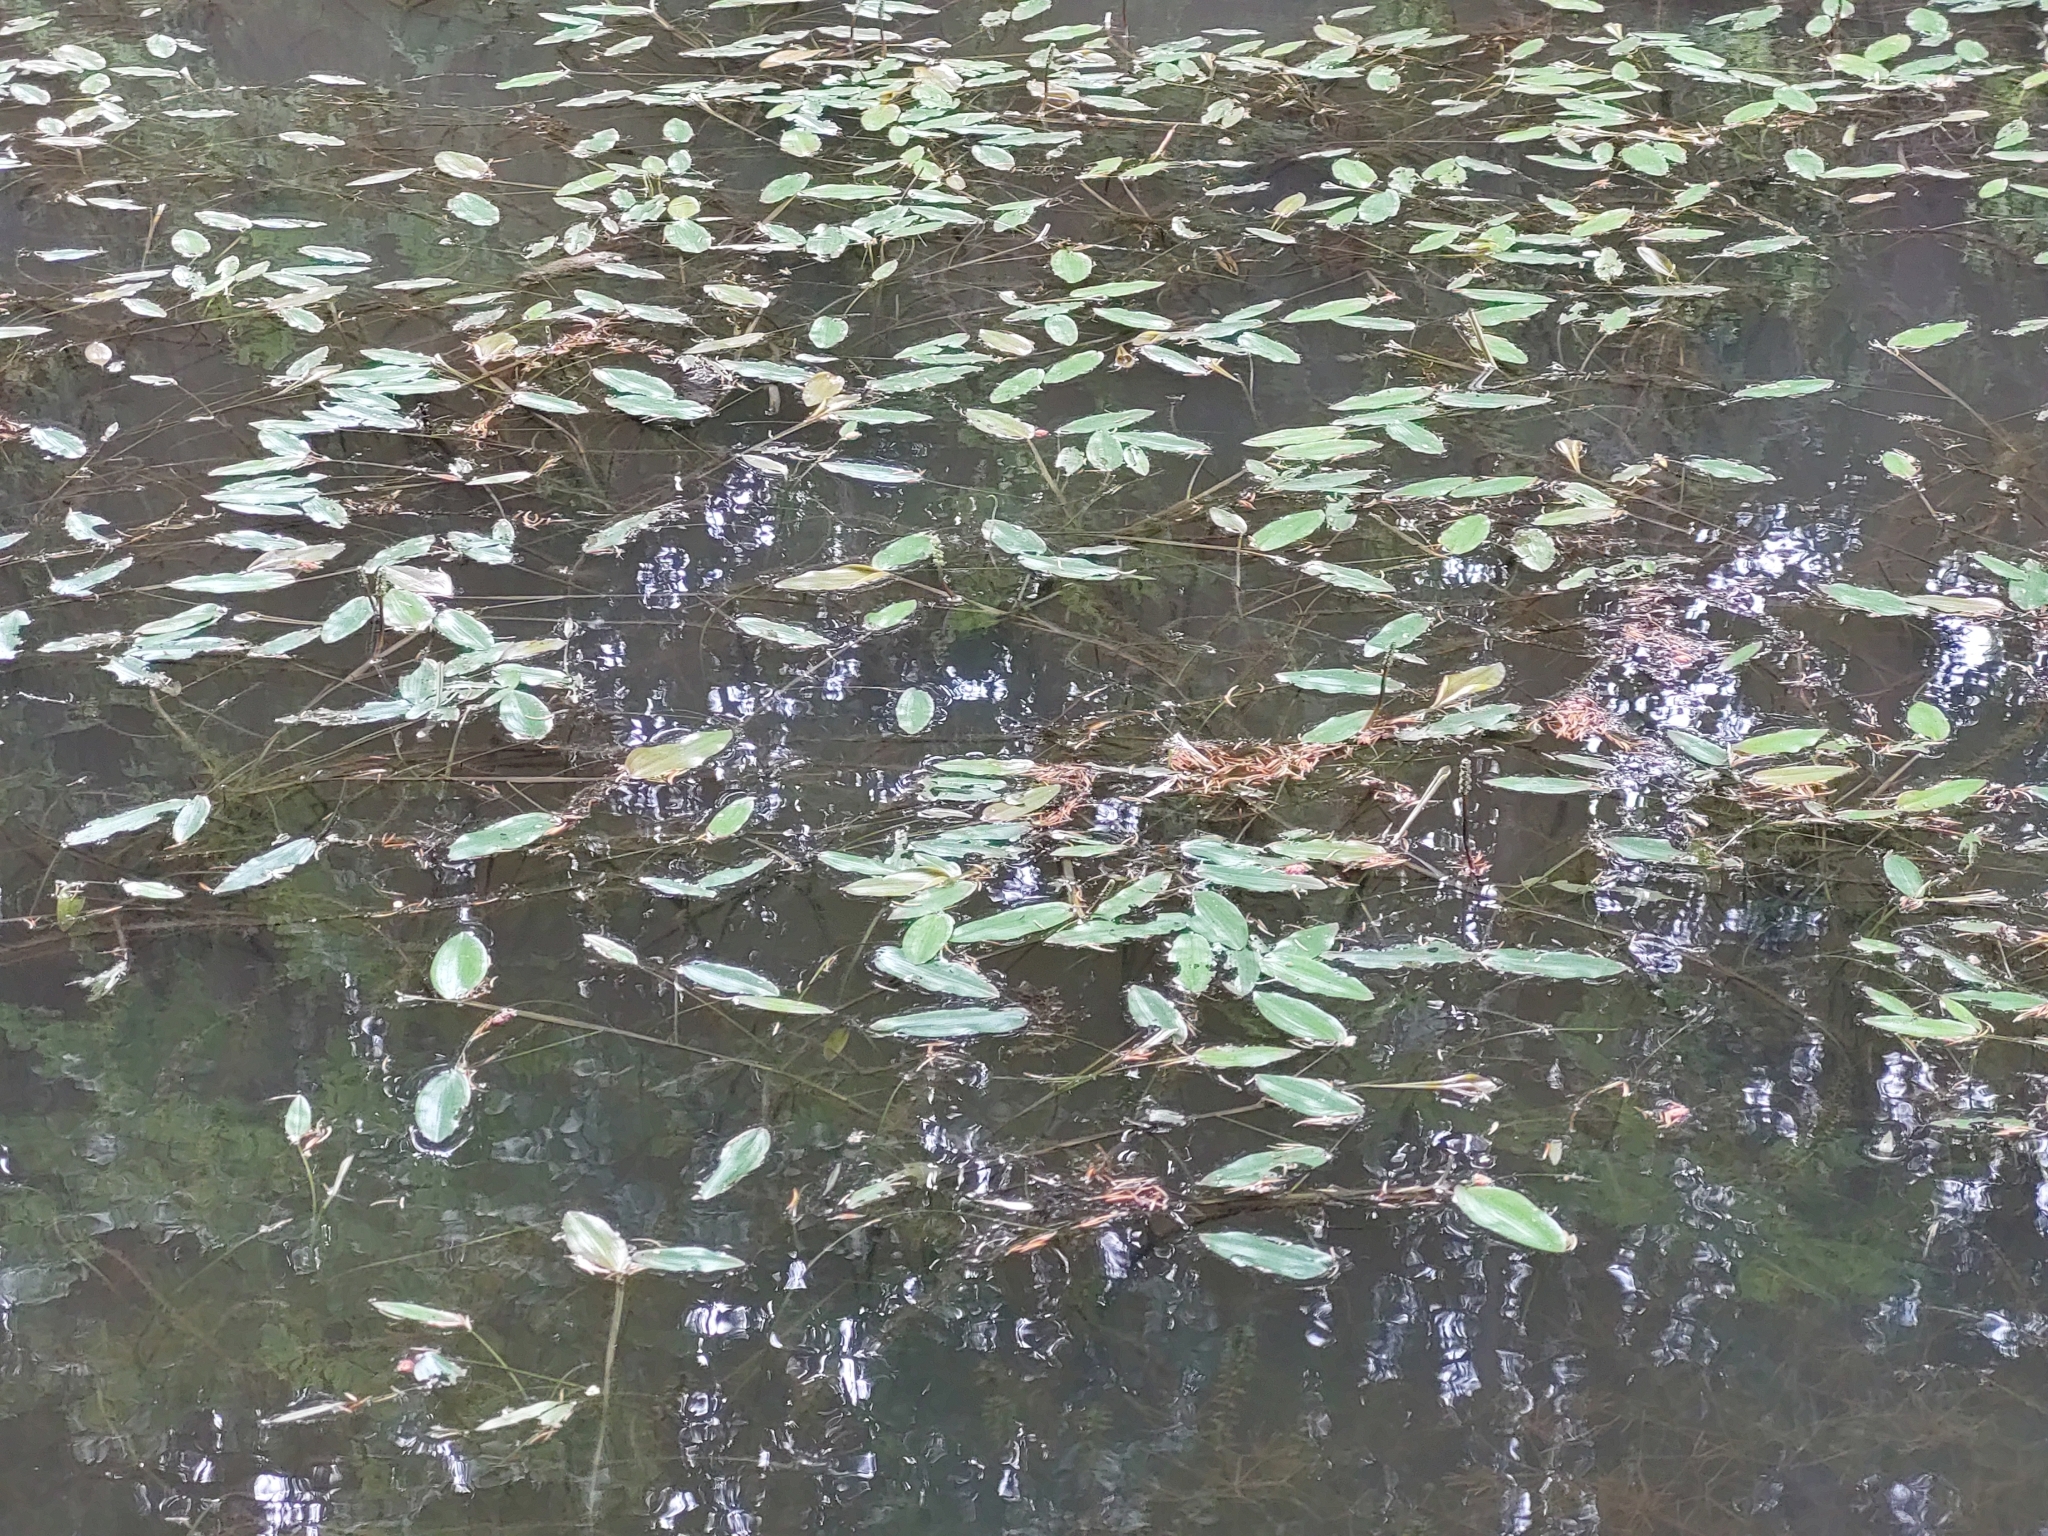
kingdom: Plantae
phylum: Tracheophyta
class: Liliopsida
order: Alismatales
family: Potamogetonaceae
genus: Potamogeton
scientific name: Potamogeton natans
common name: Broad-leaved pondweed
